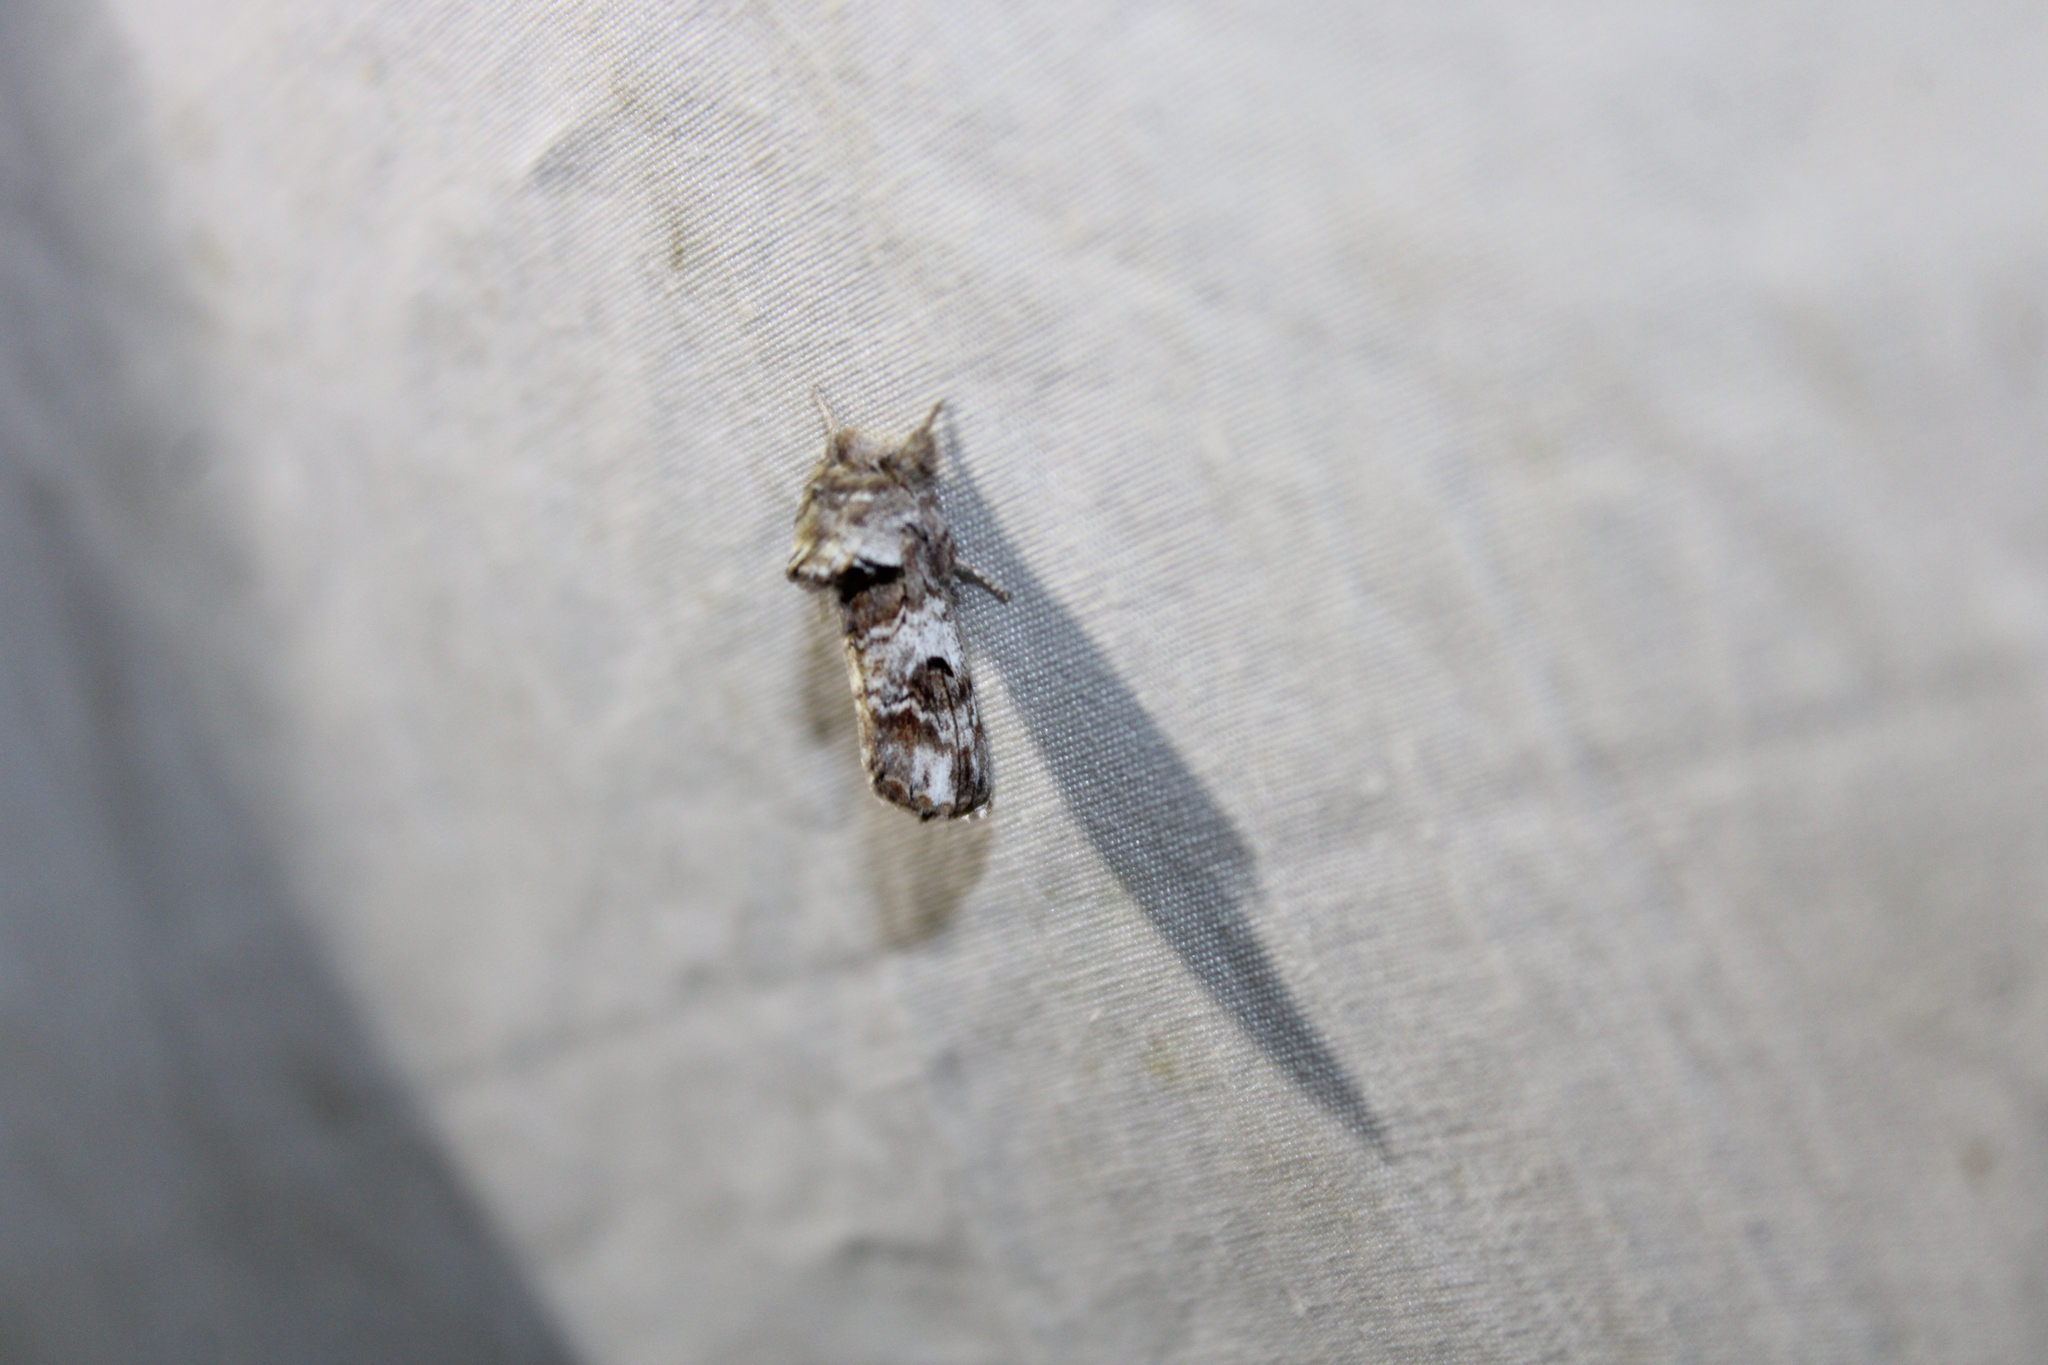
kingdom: Animalia
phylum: Arthropoda
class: Insecta
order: Lepidoptera
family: Notodontidae
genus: Schizura
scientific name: Schizura
